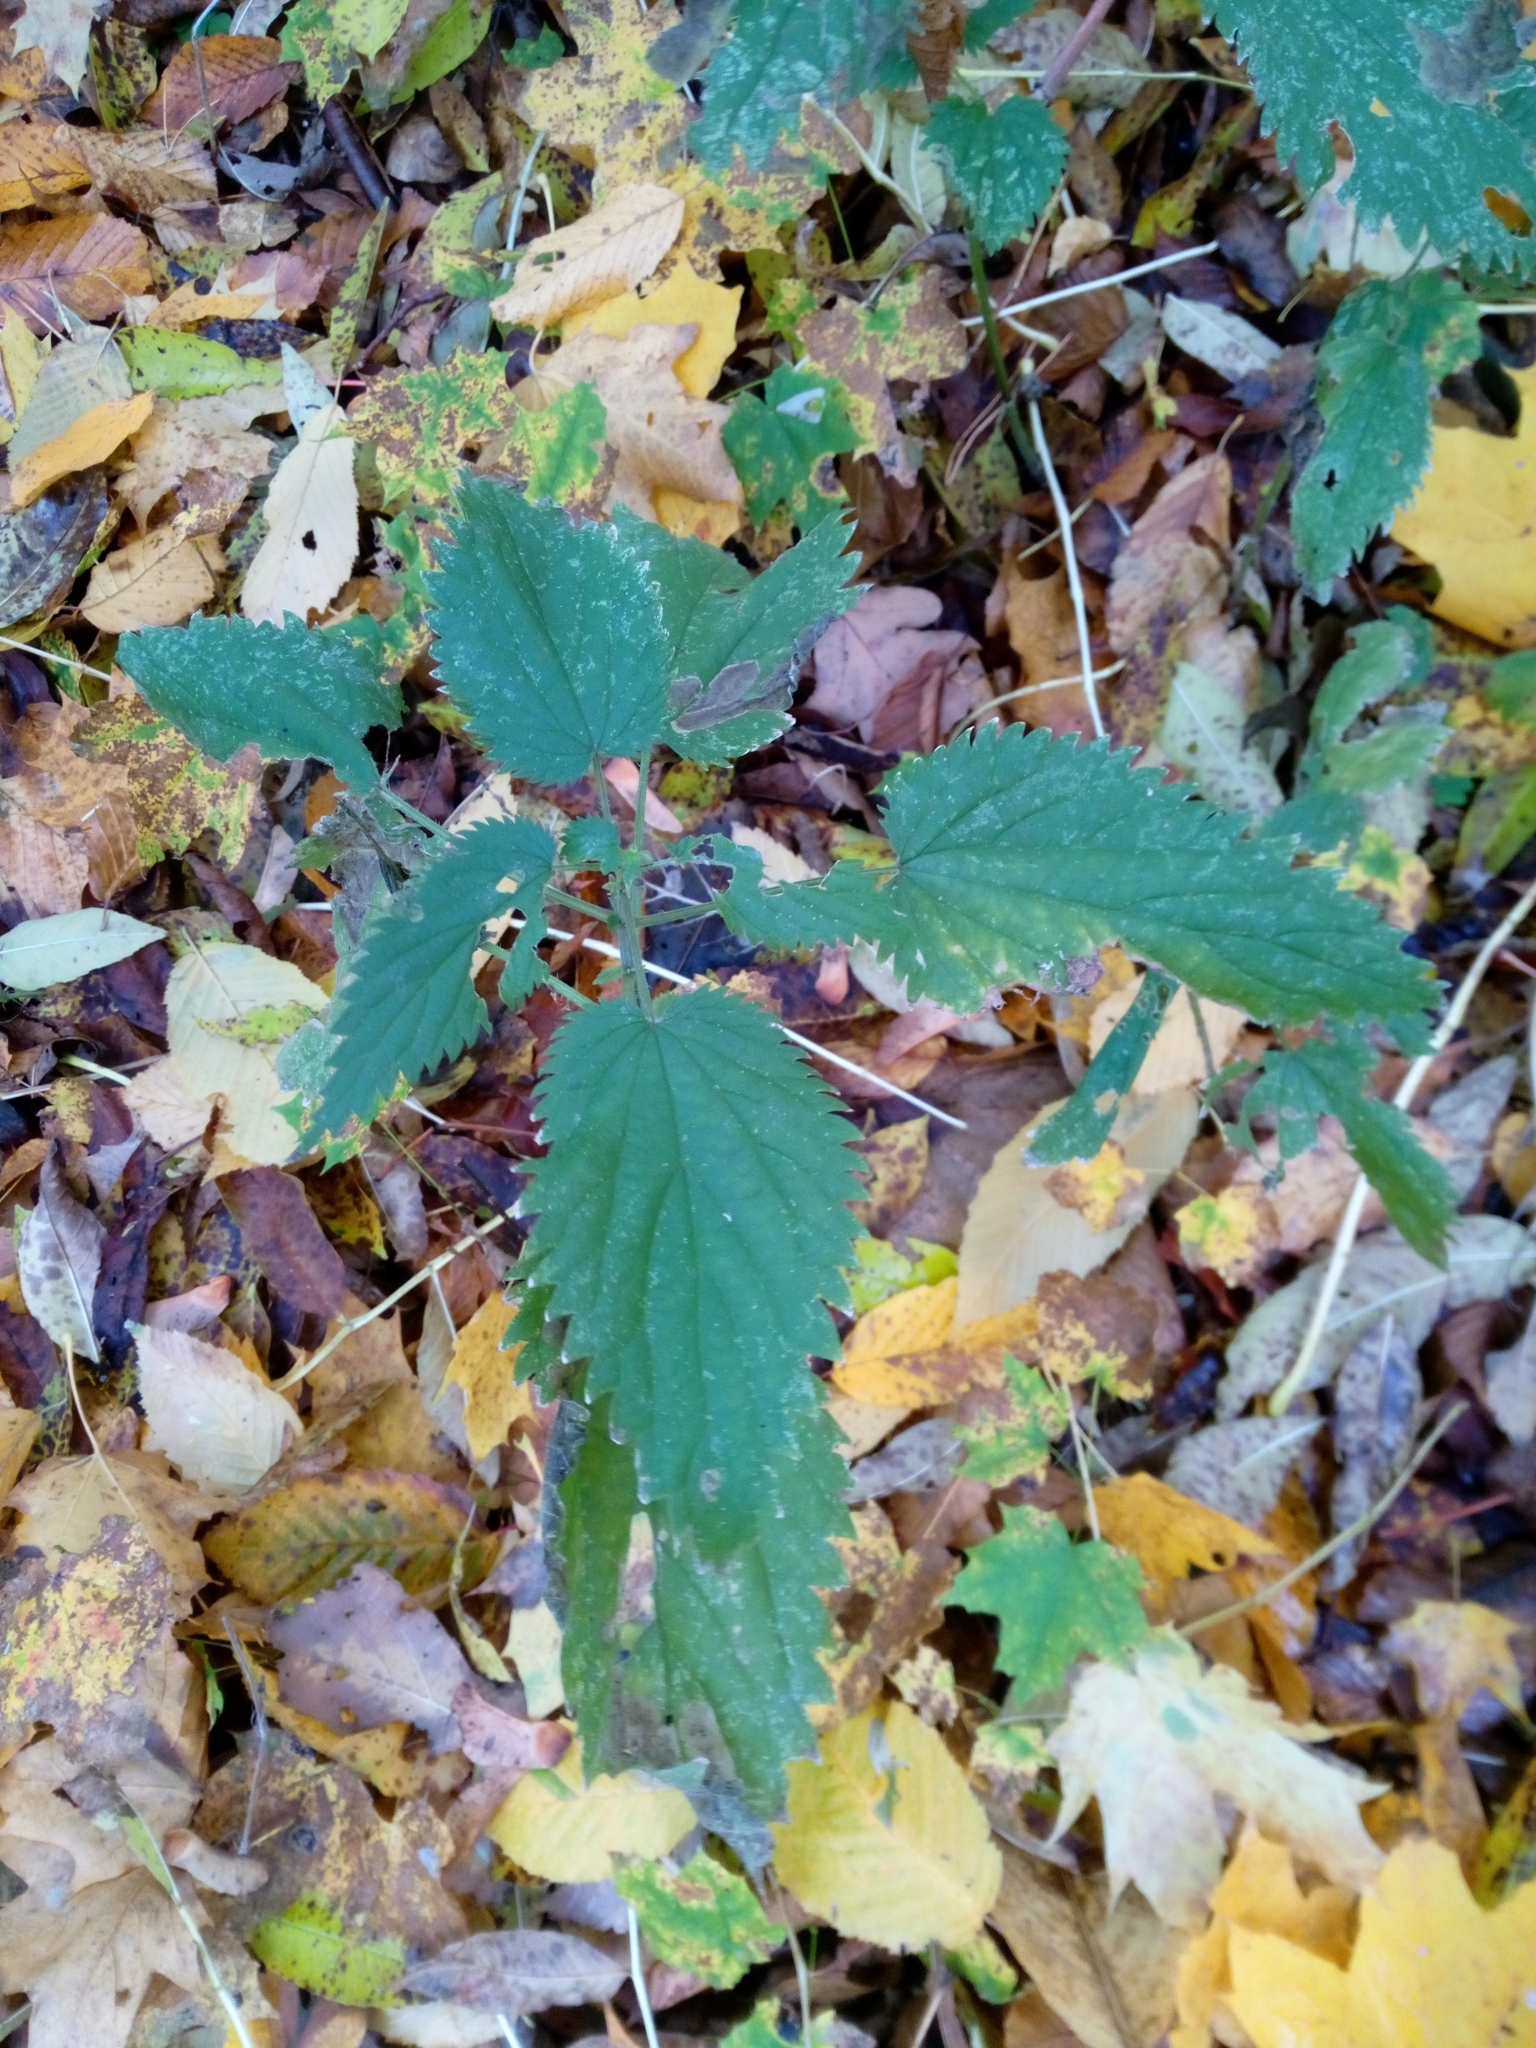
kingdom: Plantae
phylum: Tracheophyta
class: Magnoliopsida
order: Rosales
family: Urticaceae
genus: Urtica
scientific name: Urtica dioica
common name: Common nettle
